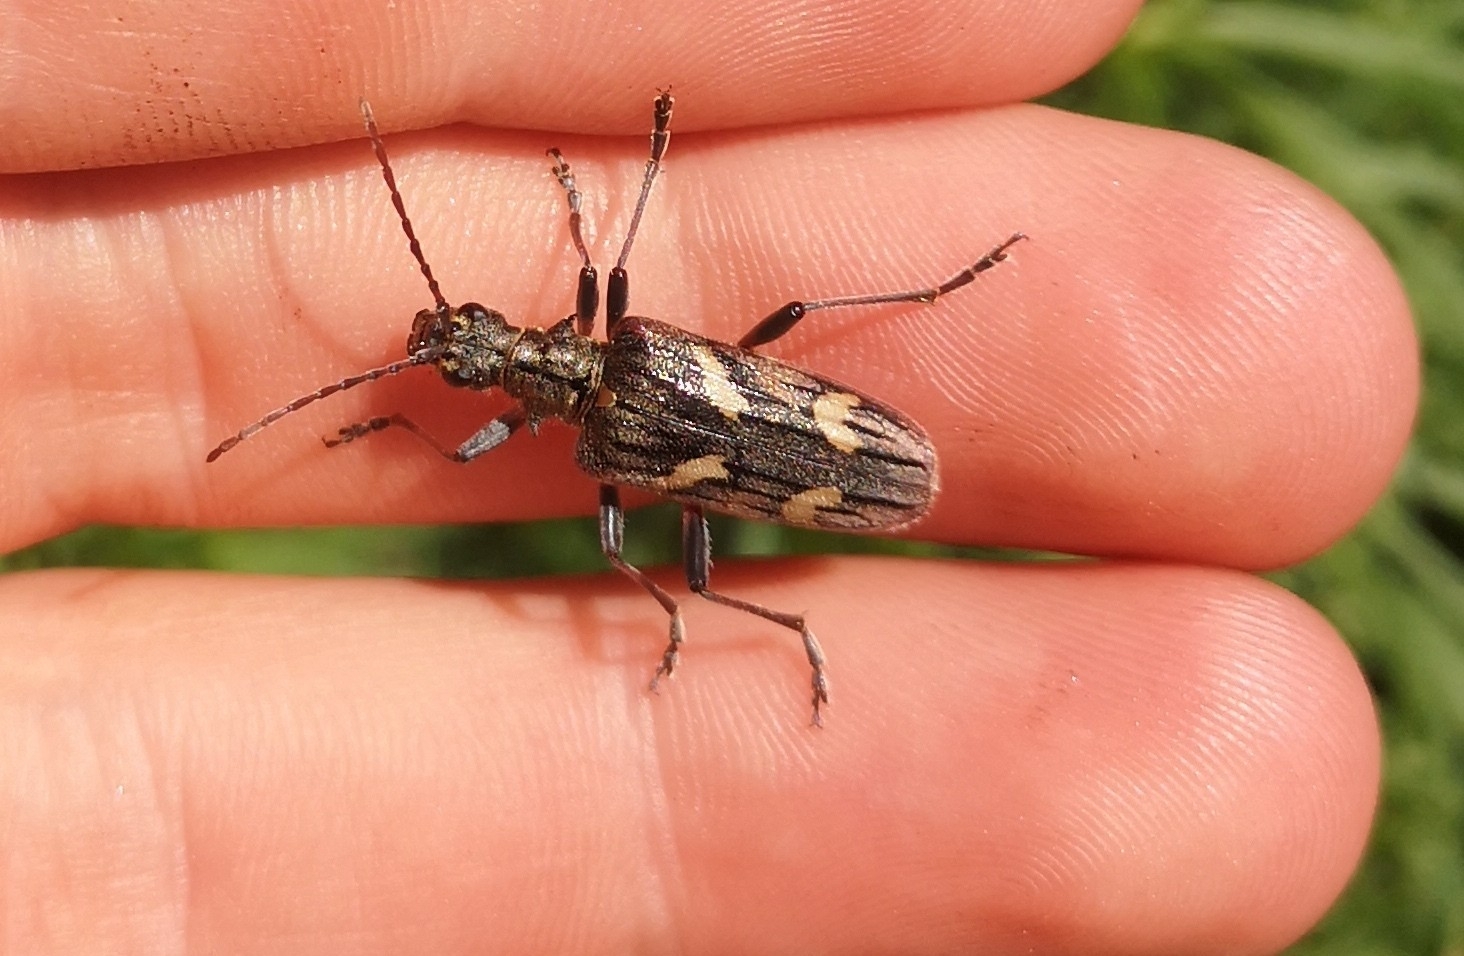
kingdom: Animalia
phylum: Arthropoda
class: Insecta
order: Coleoptera
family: Cerambycidae
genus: Rhagium
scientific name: Rhagium bifasciatum
